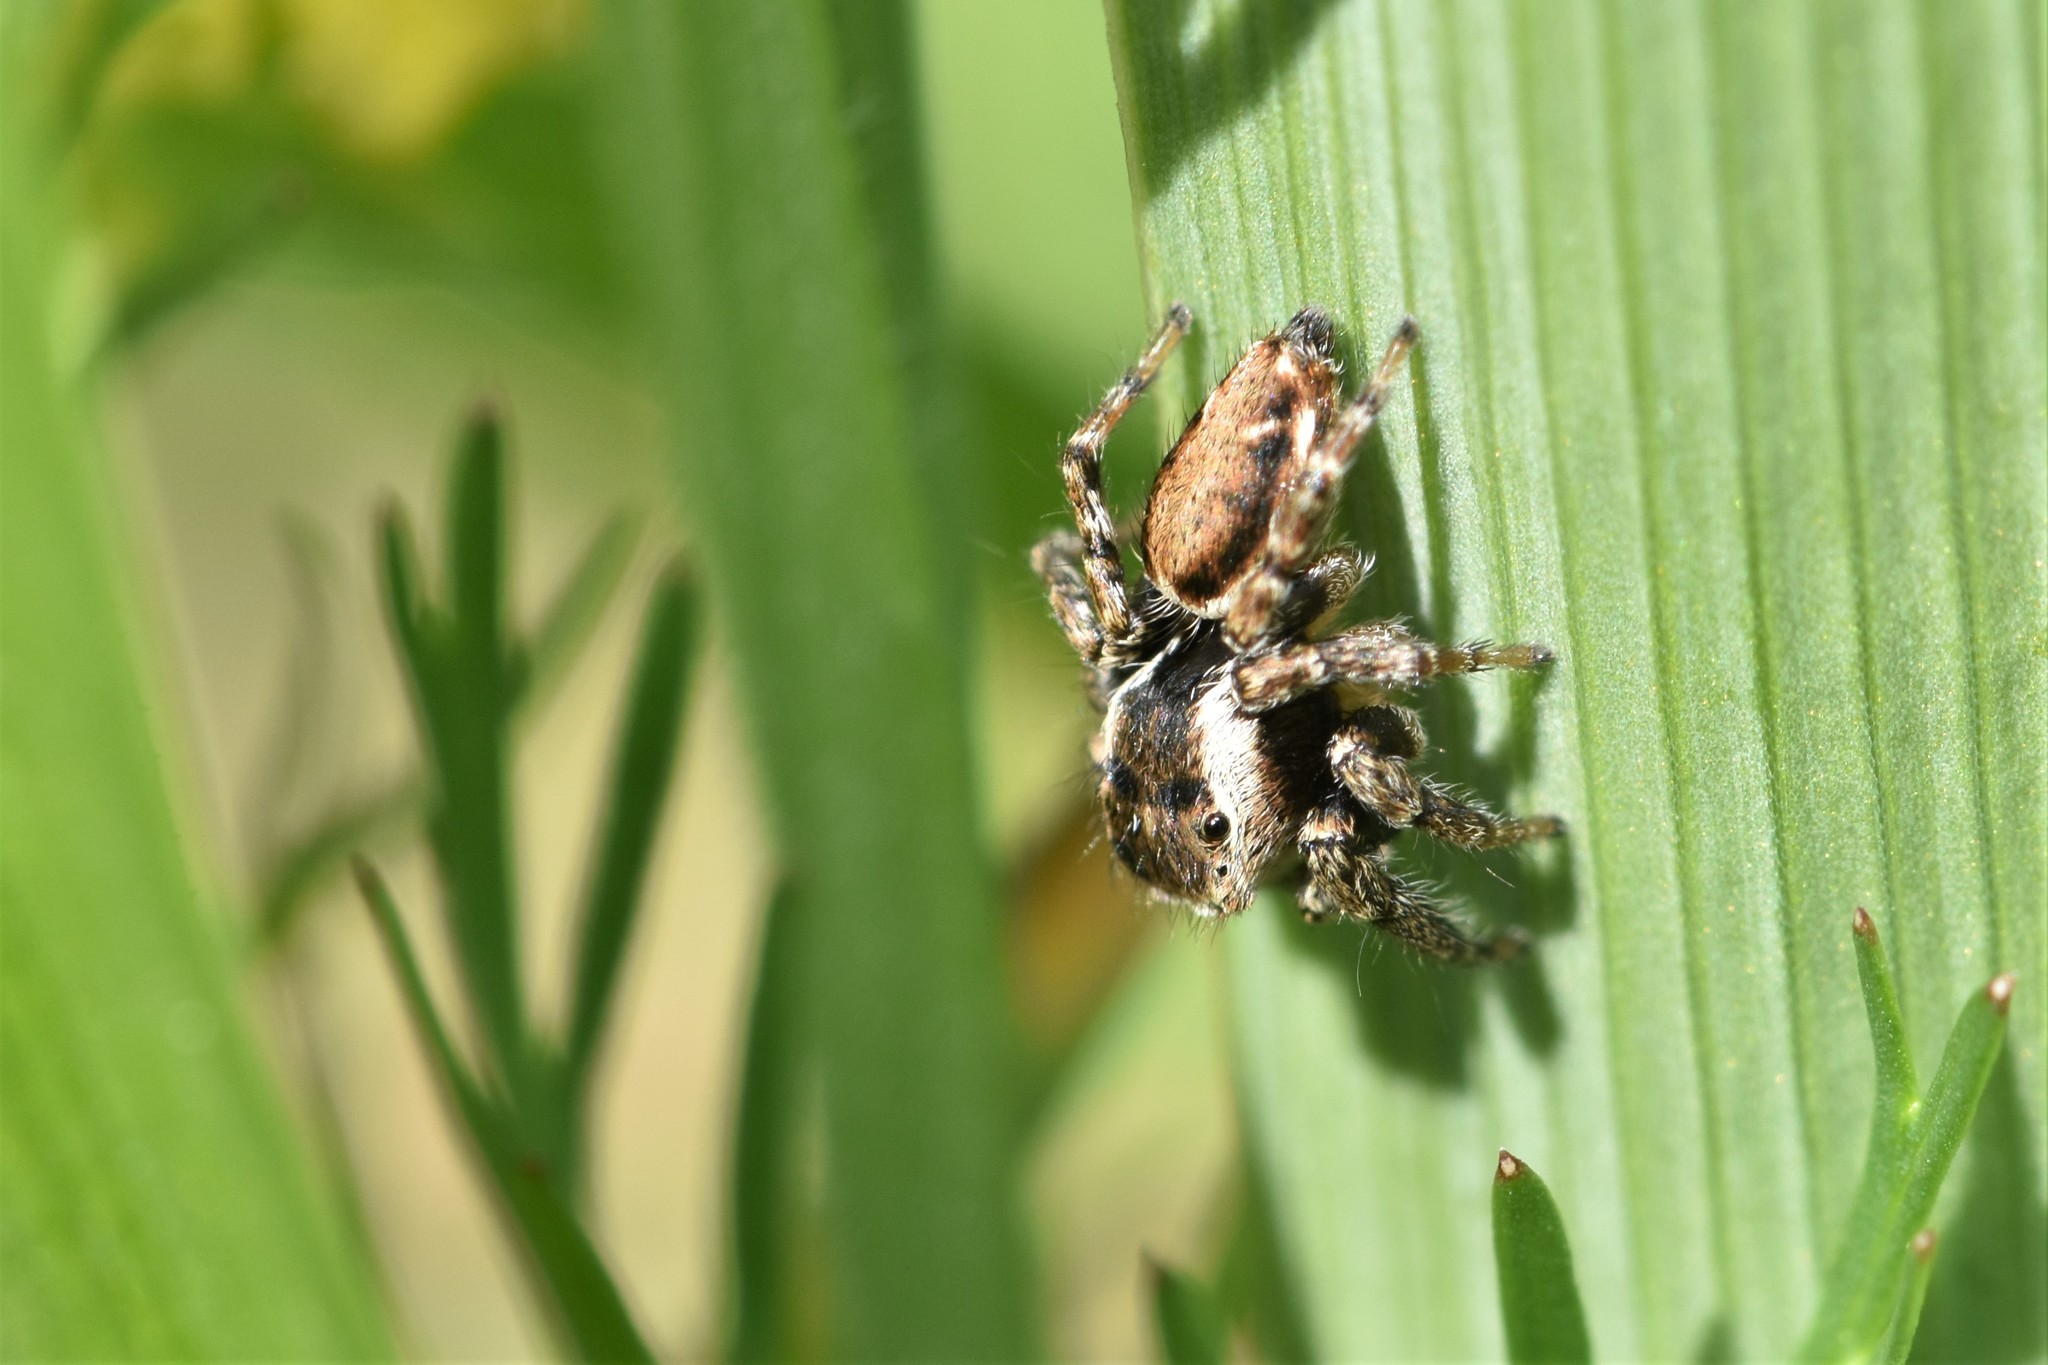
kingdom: Animalia
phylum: Arthropoda
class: Arachnida
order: Araneae
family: Salticidae
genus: Evarcha
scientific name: Evarcha proszynskii
